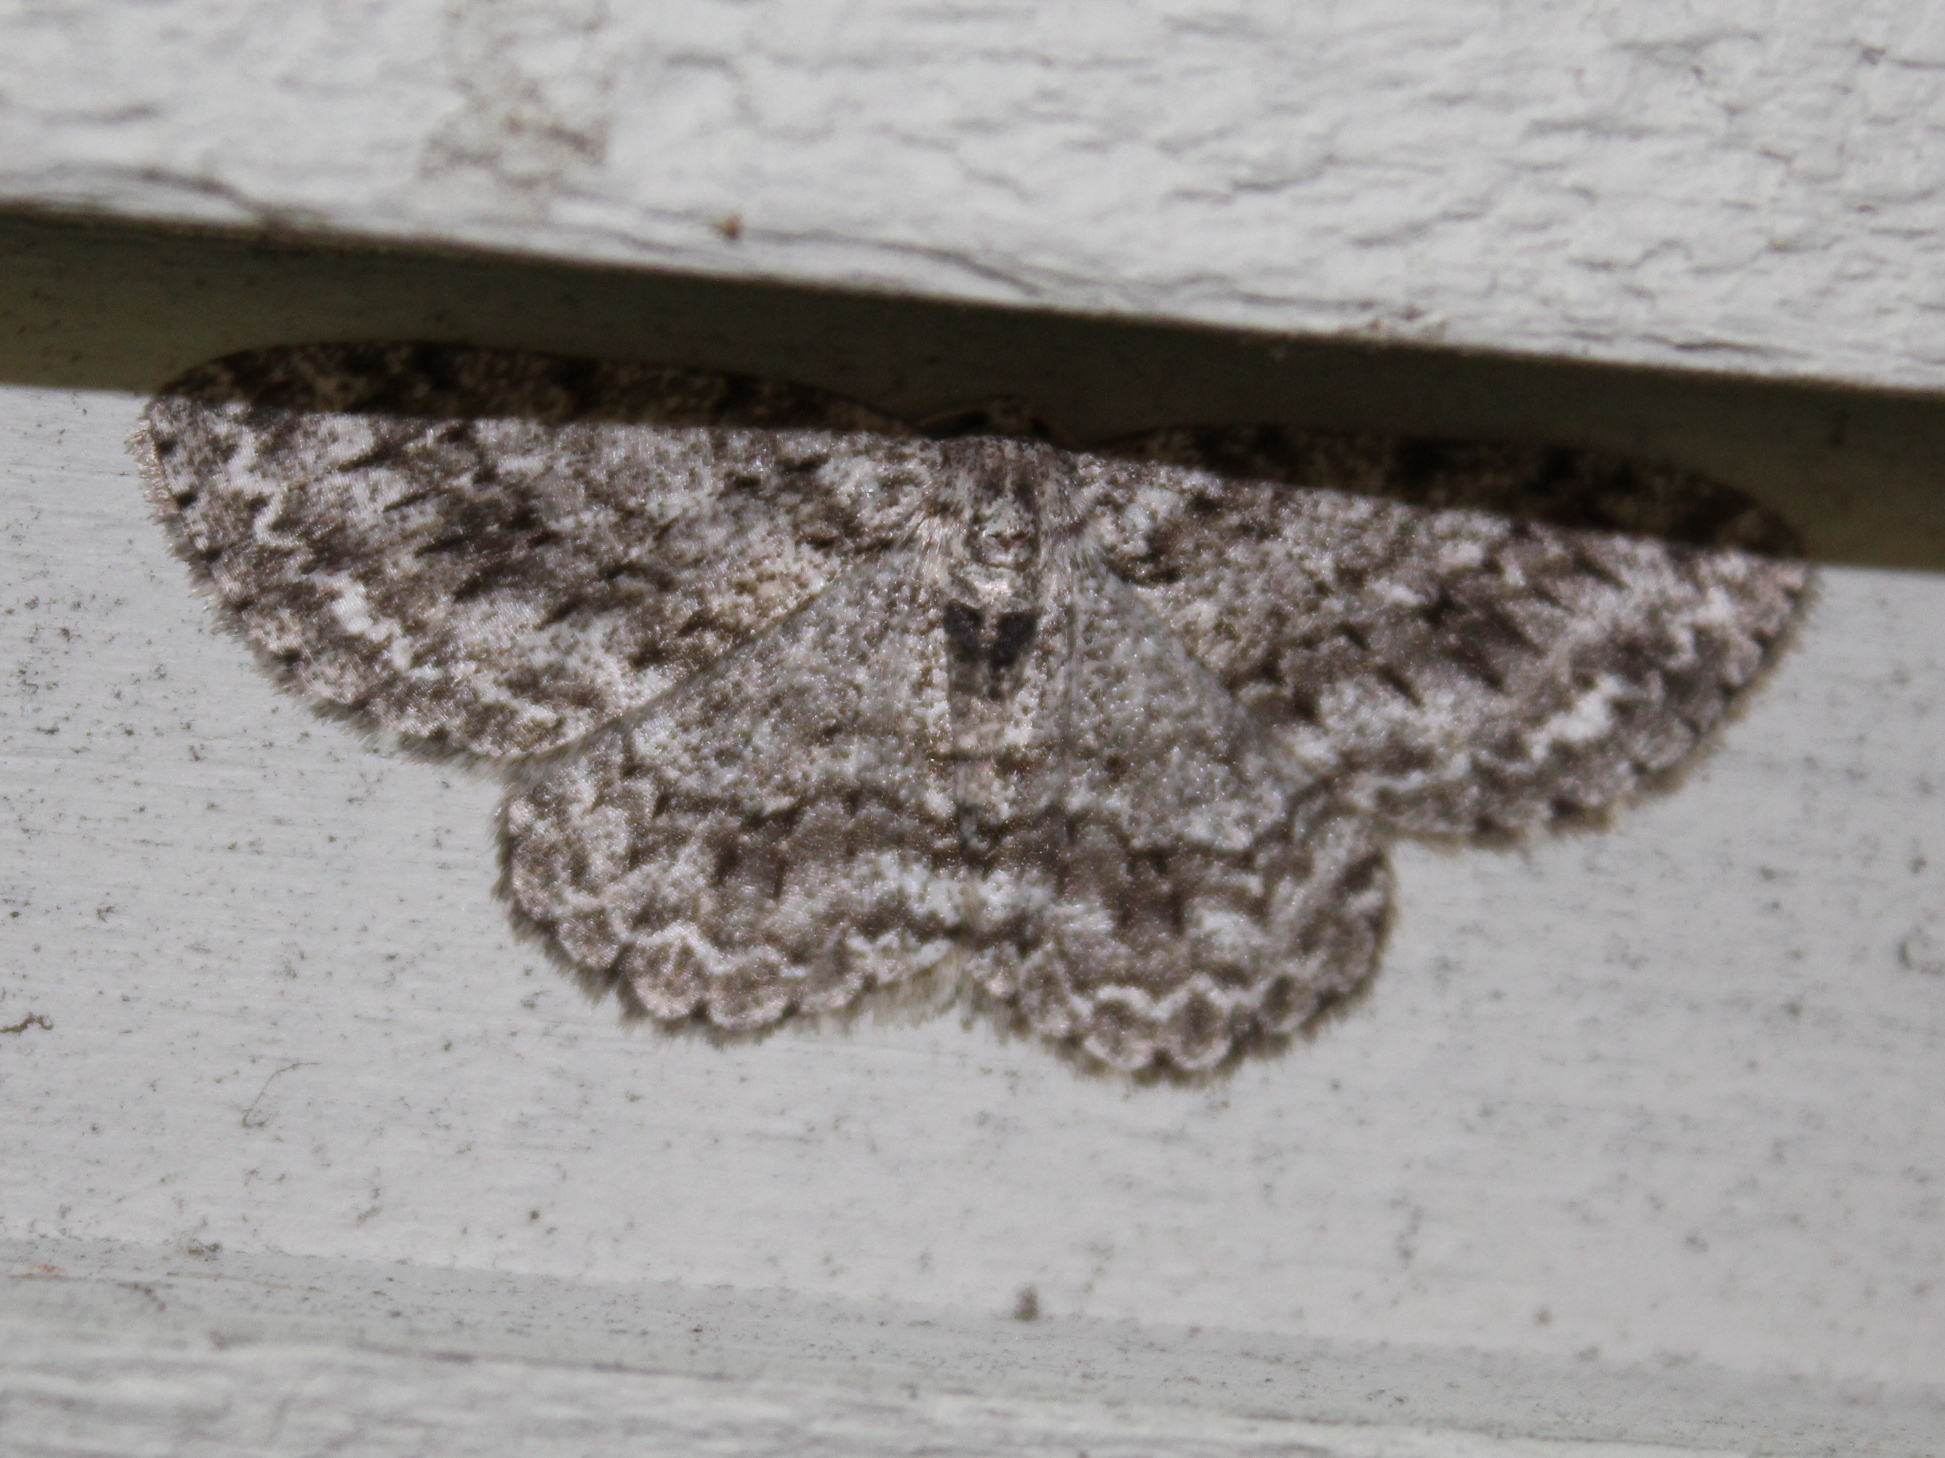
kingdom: Animalia
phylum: Arthropoda
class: Insecta
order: Lepidoptera
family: Geometridae
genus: Ectropis
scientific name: Ectropis crepuscularia
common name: Engrailed
